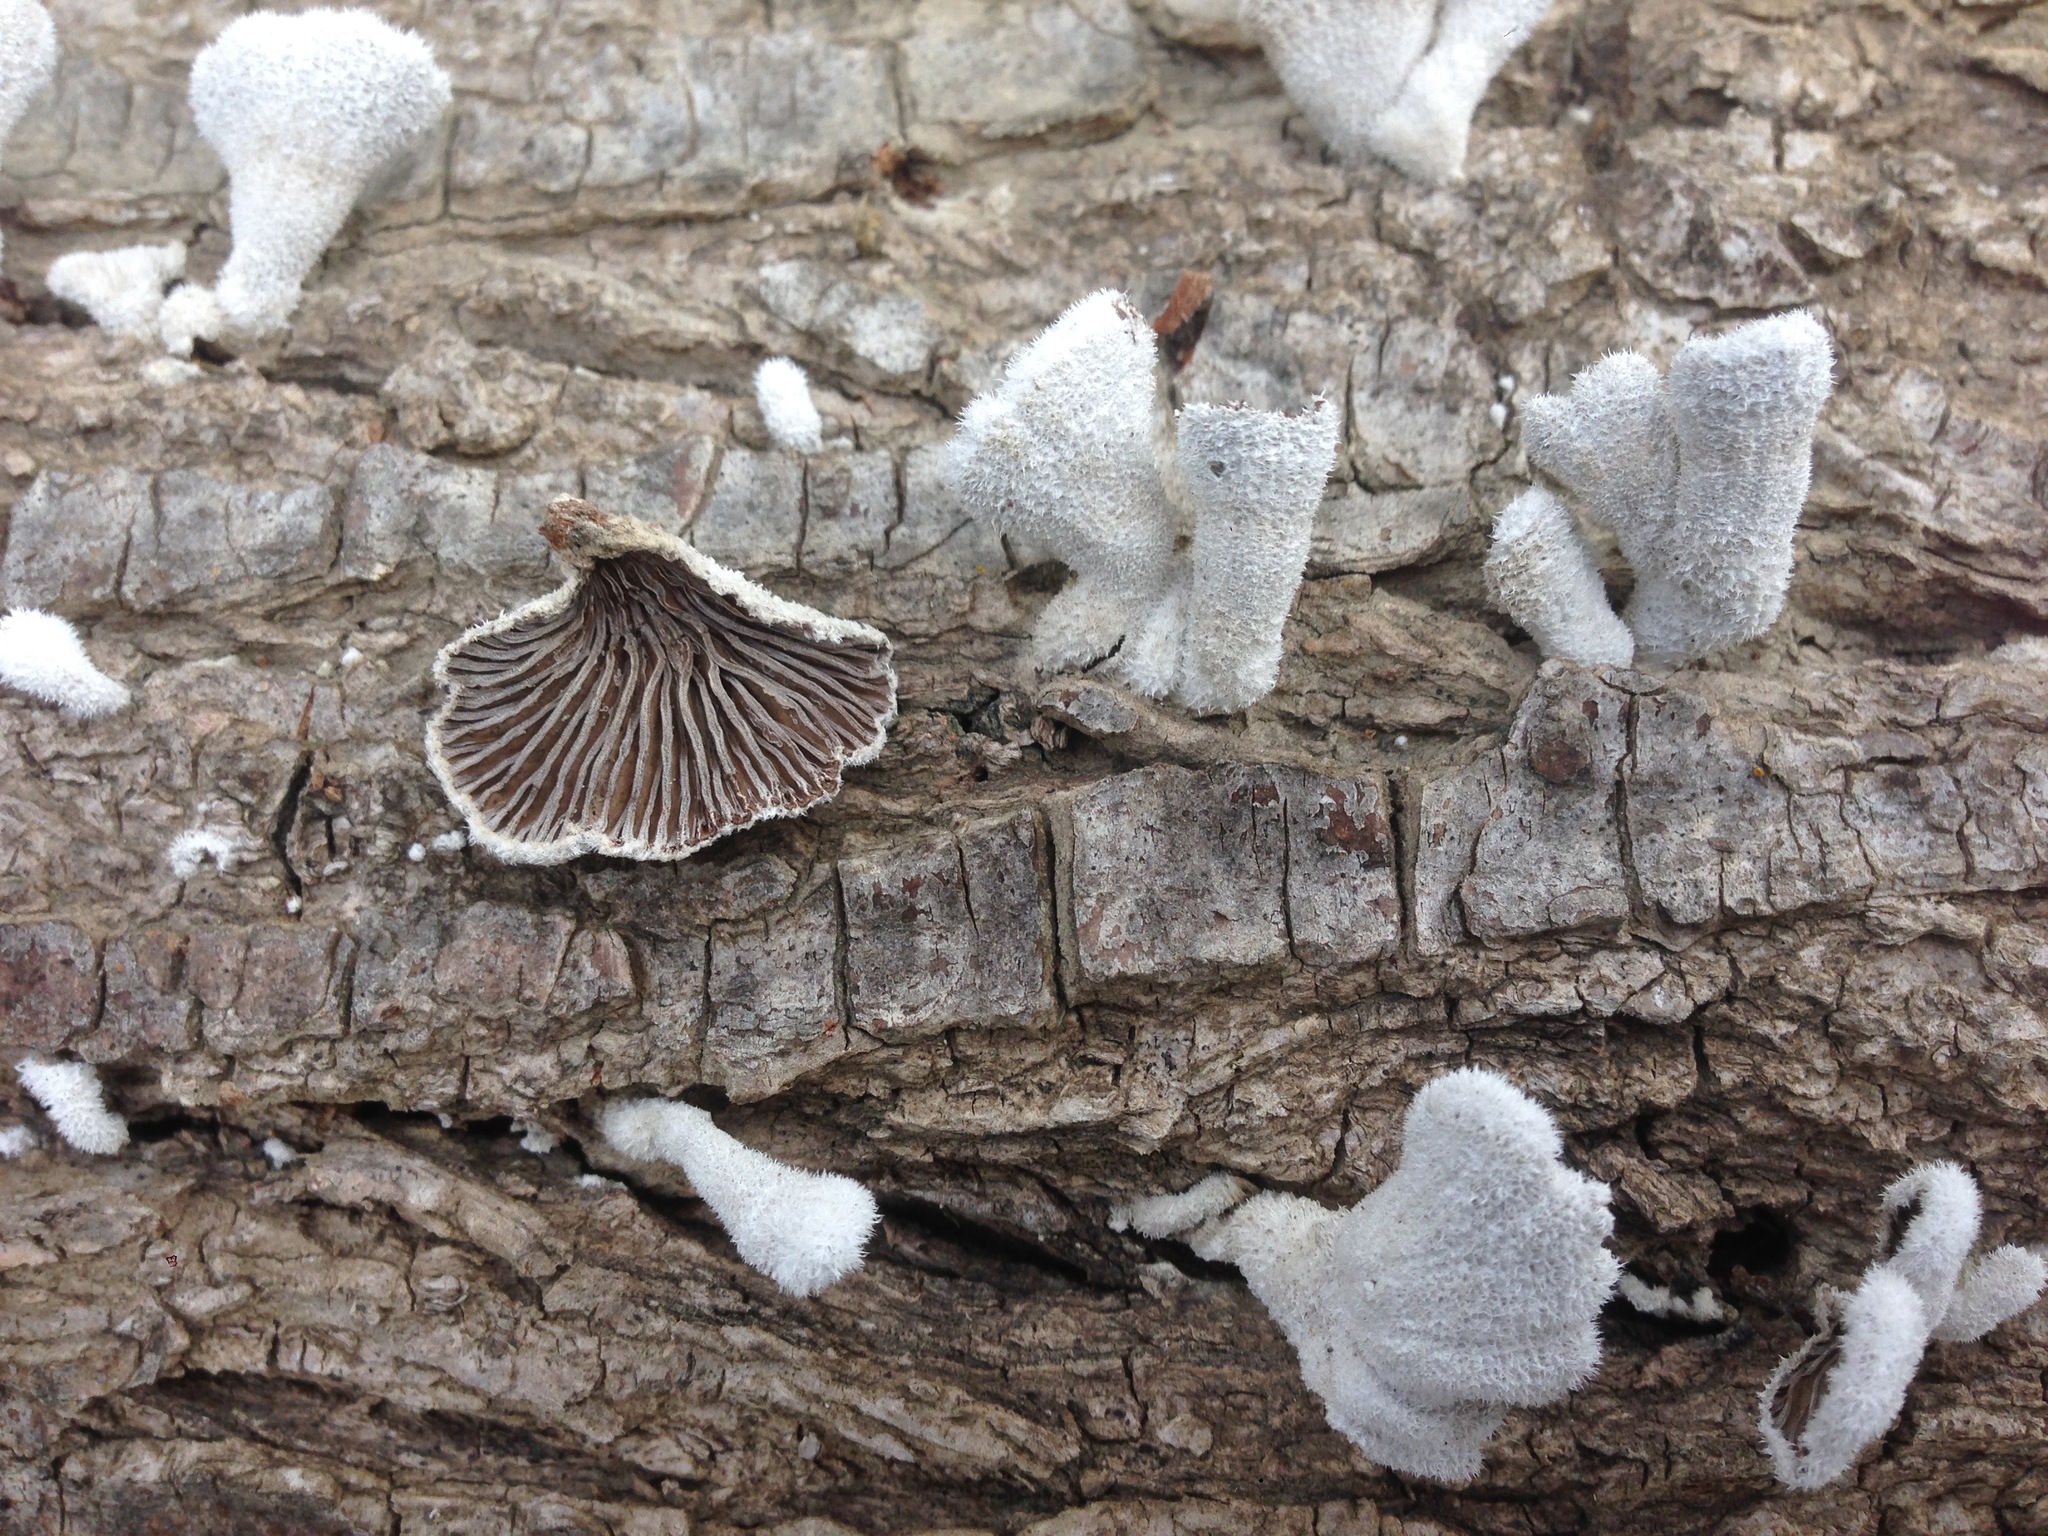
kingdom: Fungi
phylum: Basidiomycota
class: Agaricomycetes
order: Agaricales
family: Schizophyllaceae
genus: Schizophyllum
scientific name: Schizophyllum commune
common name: Common porecrust
